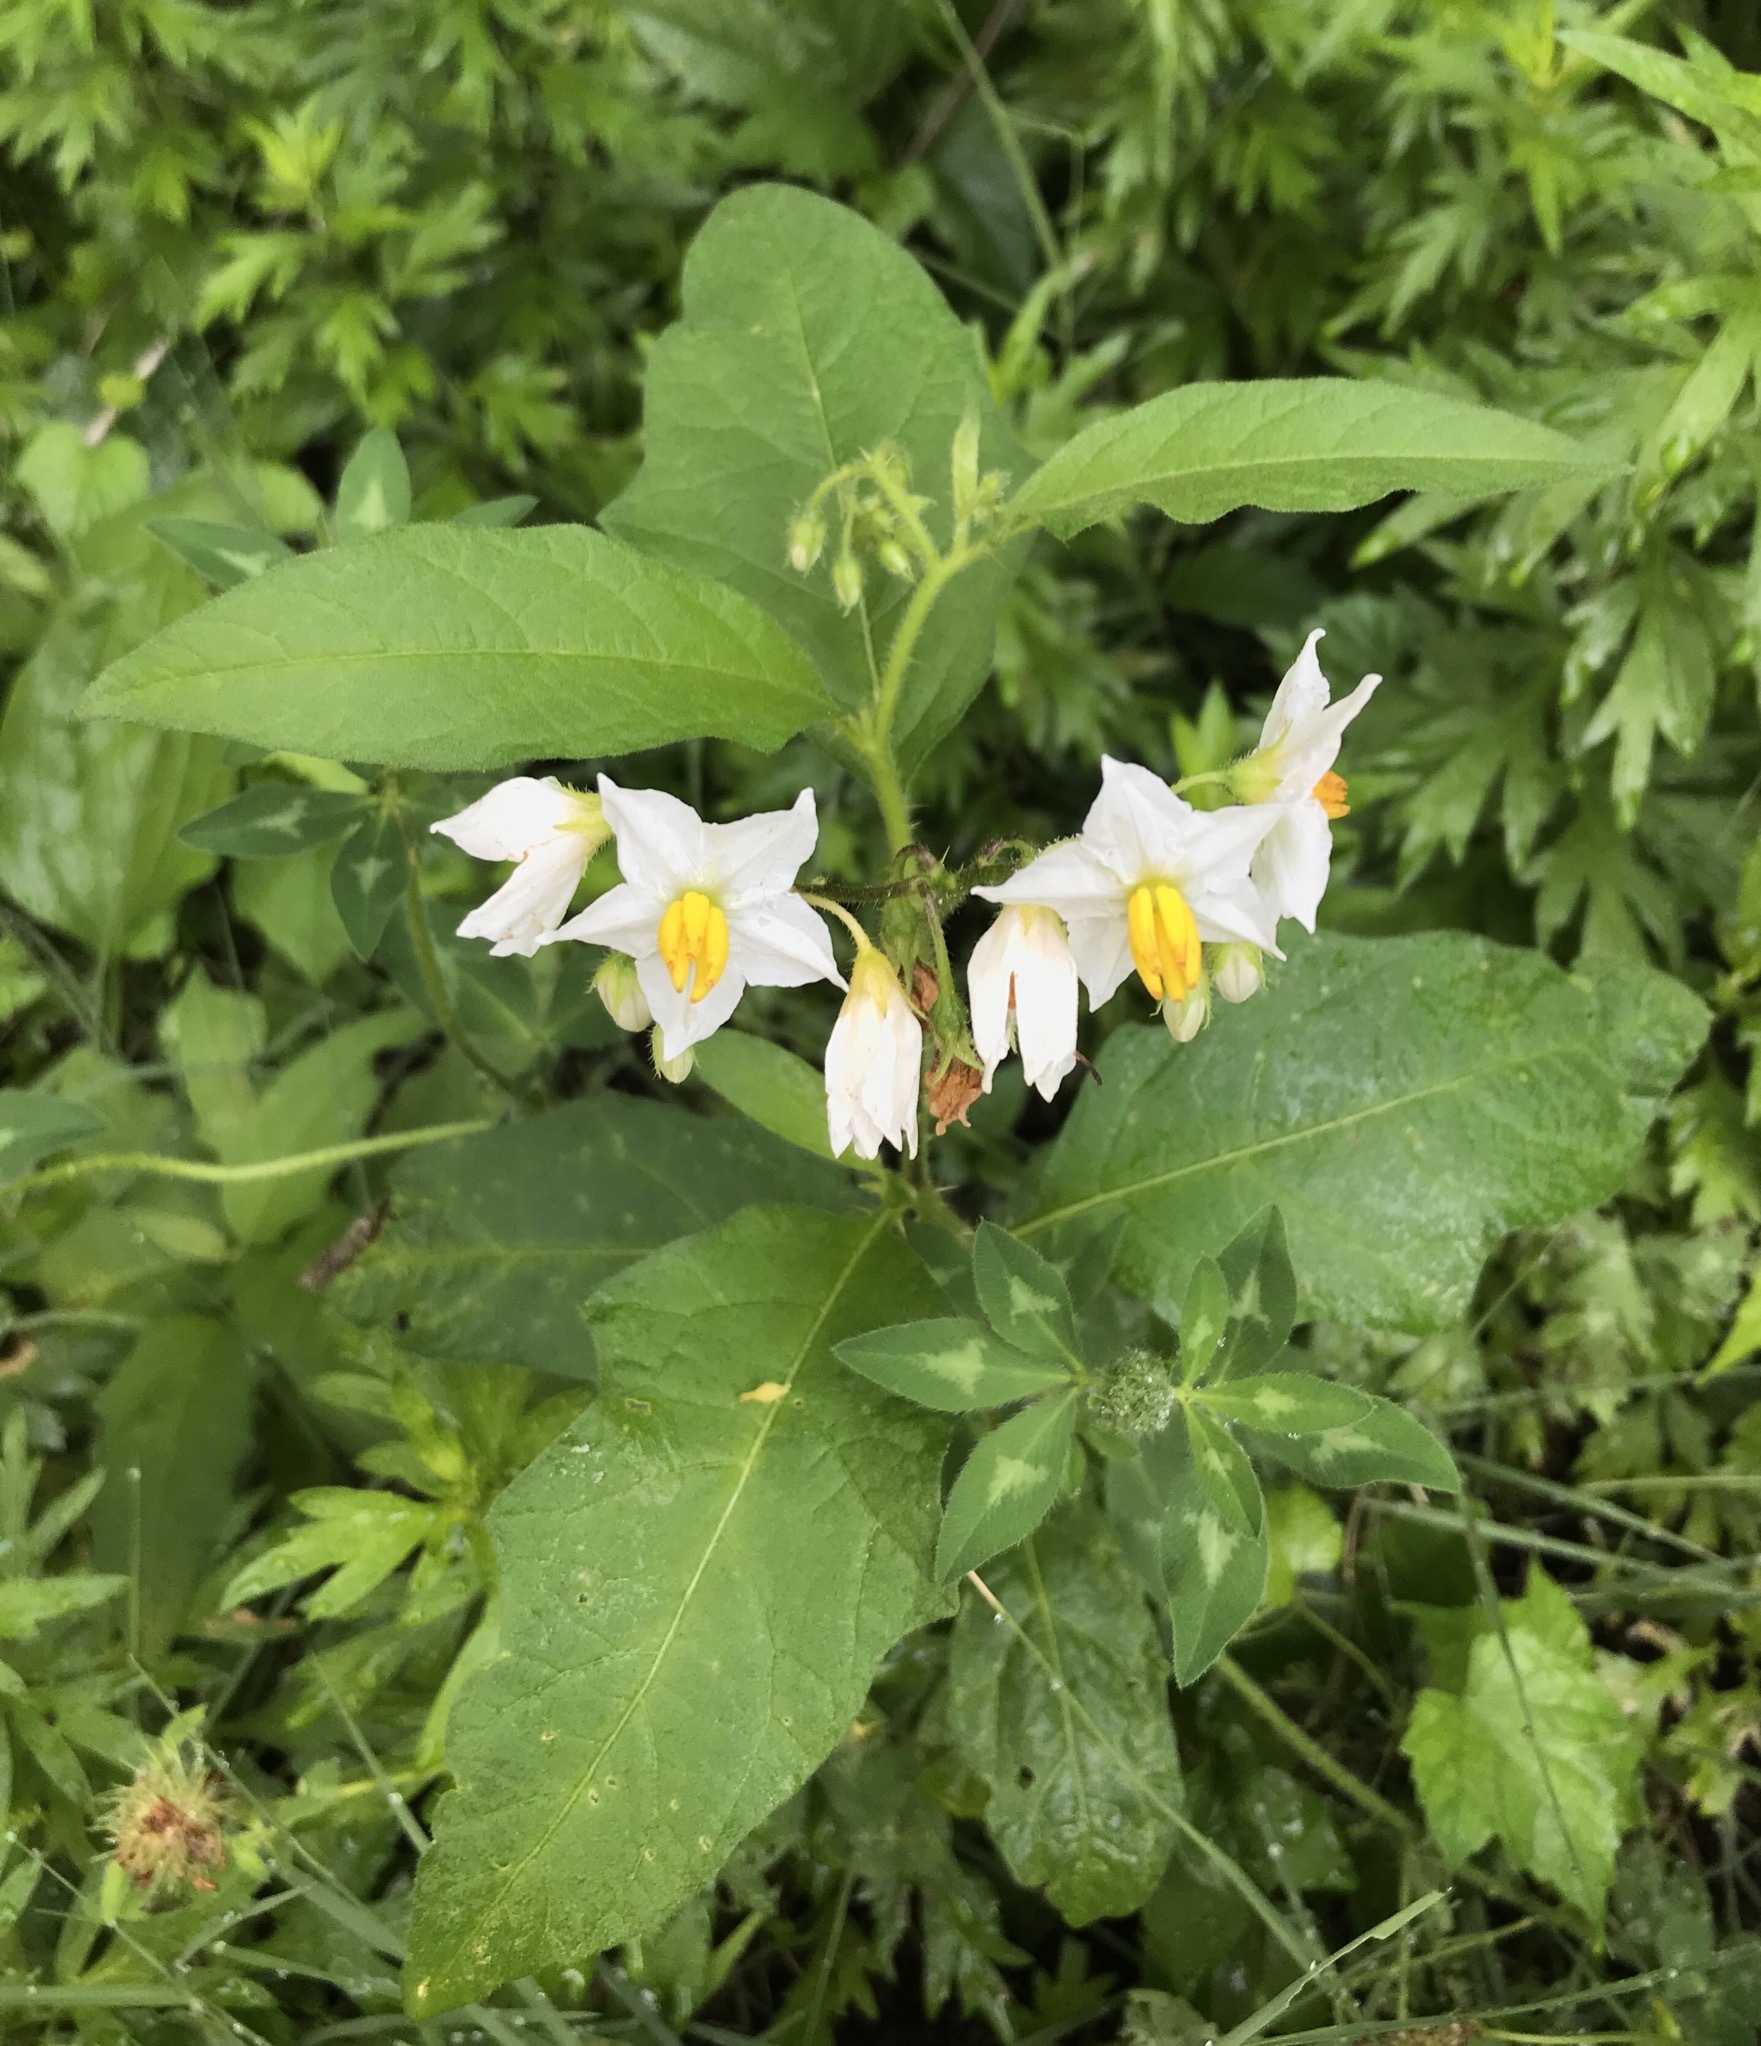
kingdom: Plantae
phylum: Tracheophyta
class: Magnoliopsida
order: Solanales
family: Solanaceae
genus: Solanum
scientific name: Solanum carolinense
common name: Horse-nettle
